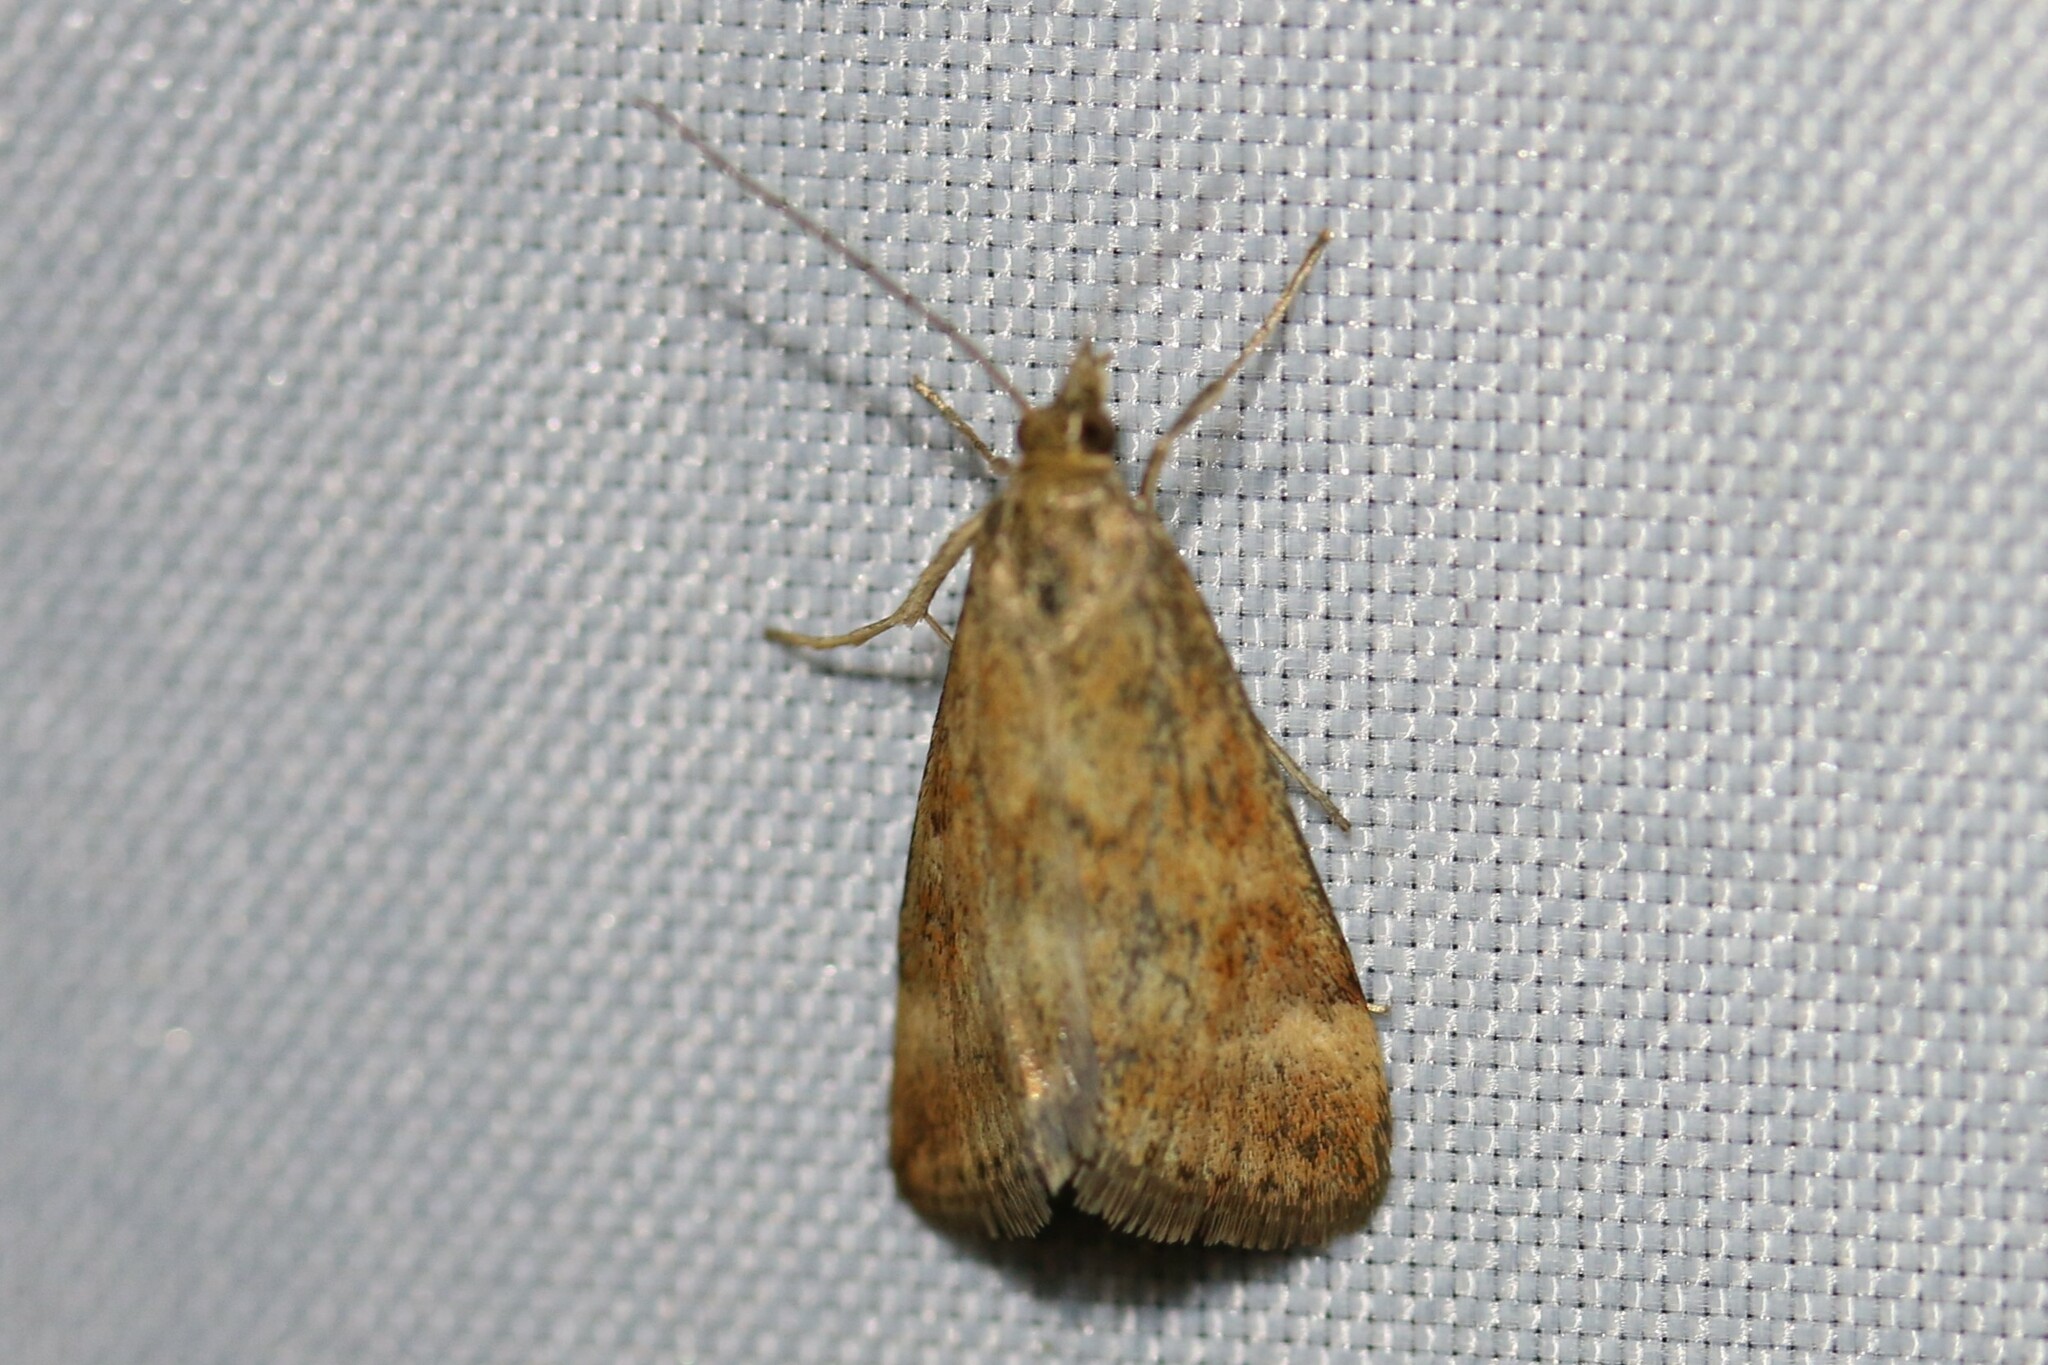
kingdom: Animalia
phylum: Arthropoda
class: Insecta
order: Lepidoptera
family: Crambidae
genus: Pyrausta
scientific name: Pyrausta despicata
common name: Straw-barred pearl
